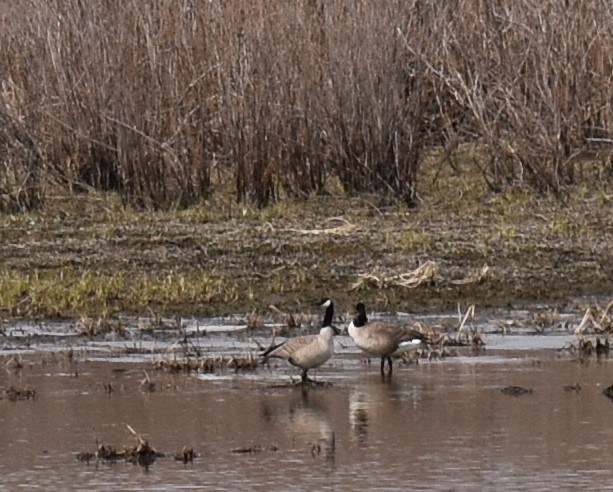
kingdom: Animalia
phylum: Chordata
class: Aves
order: Anseriformes
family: Anatidae
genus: Branta
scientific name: Branta canadensis
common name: Canada goose
